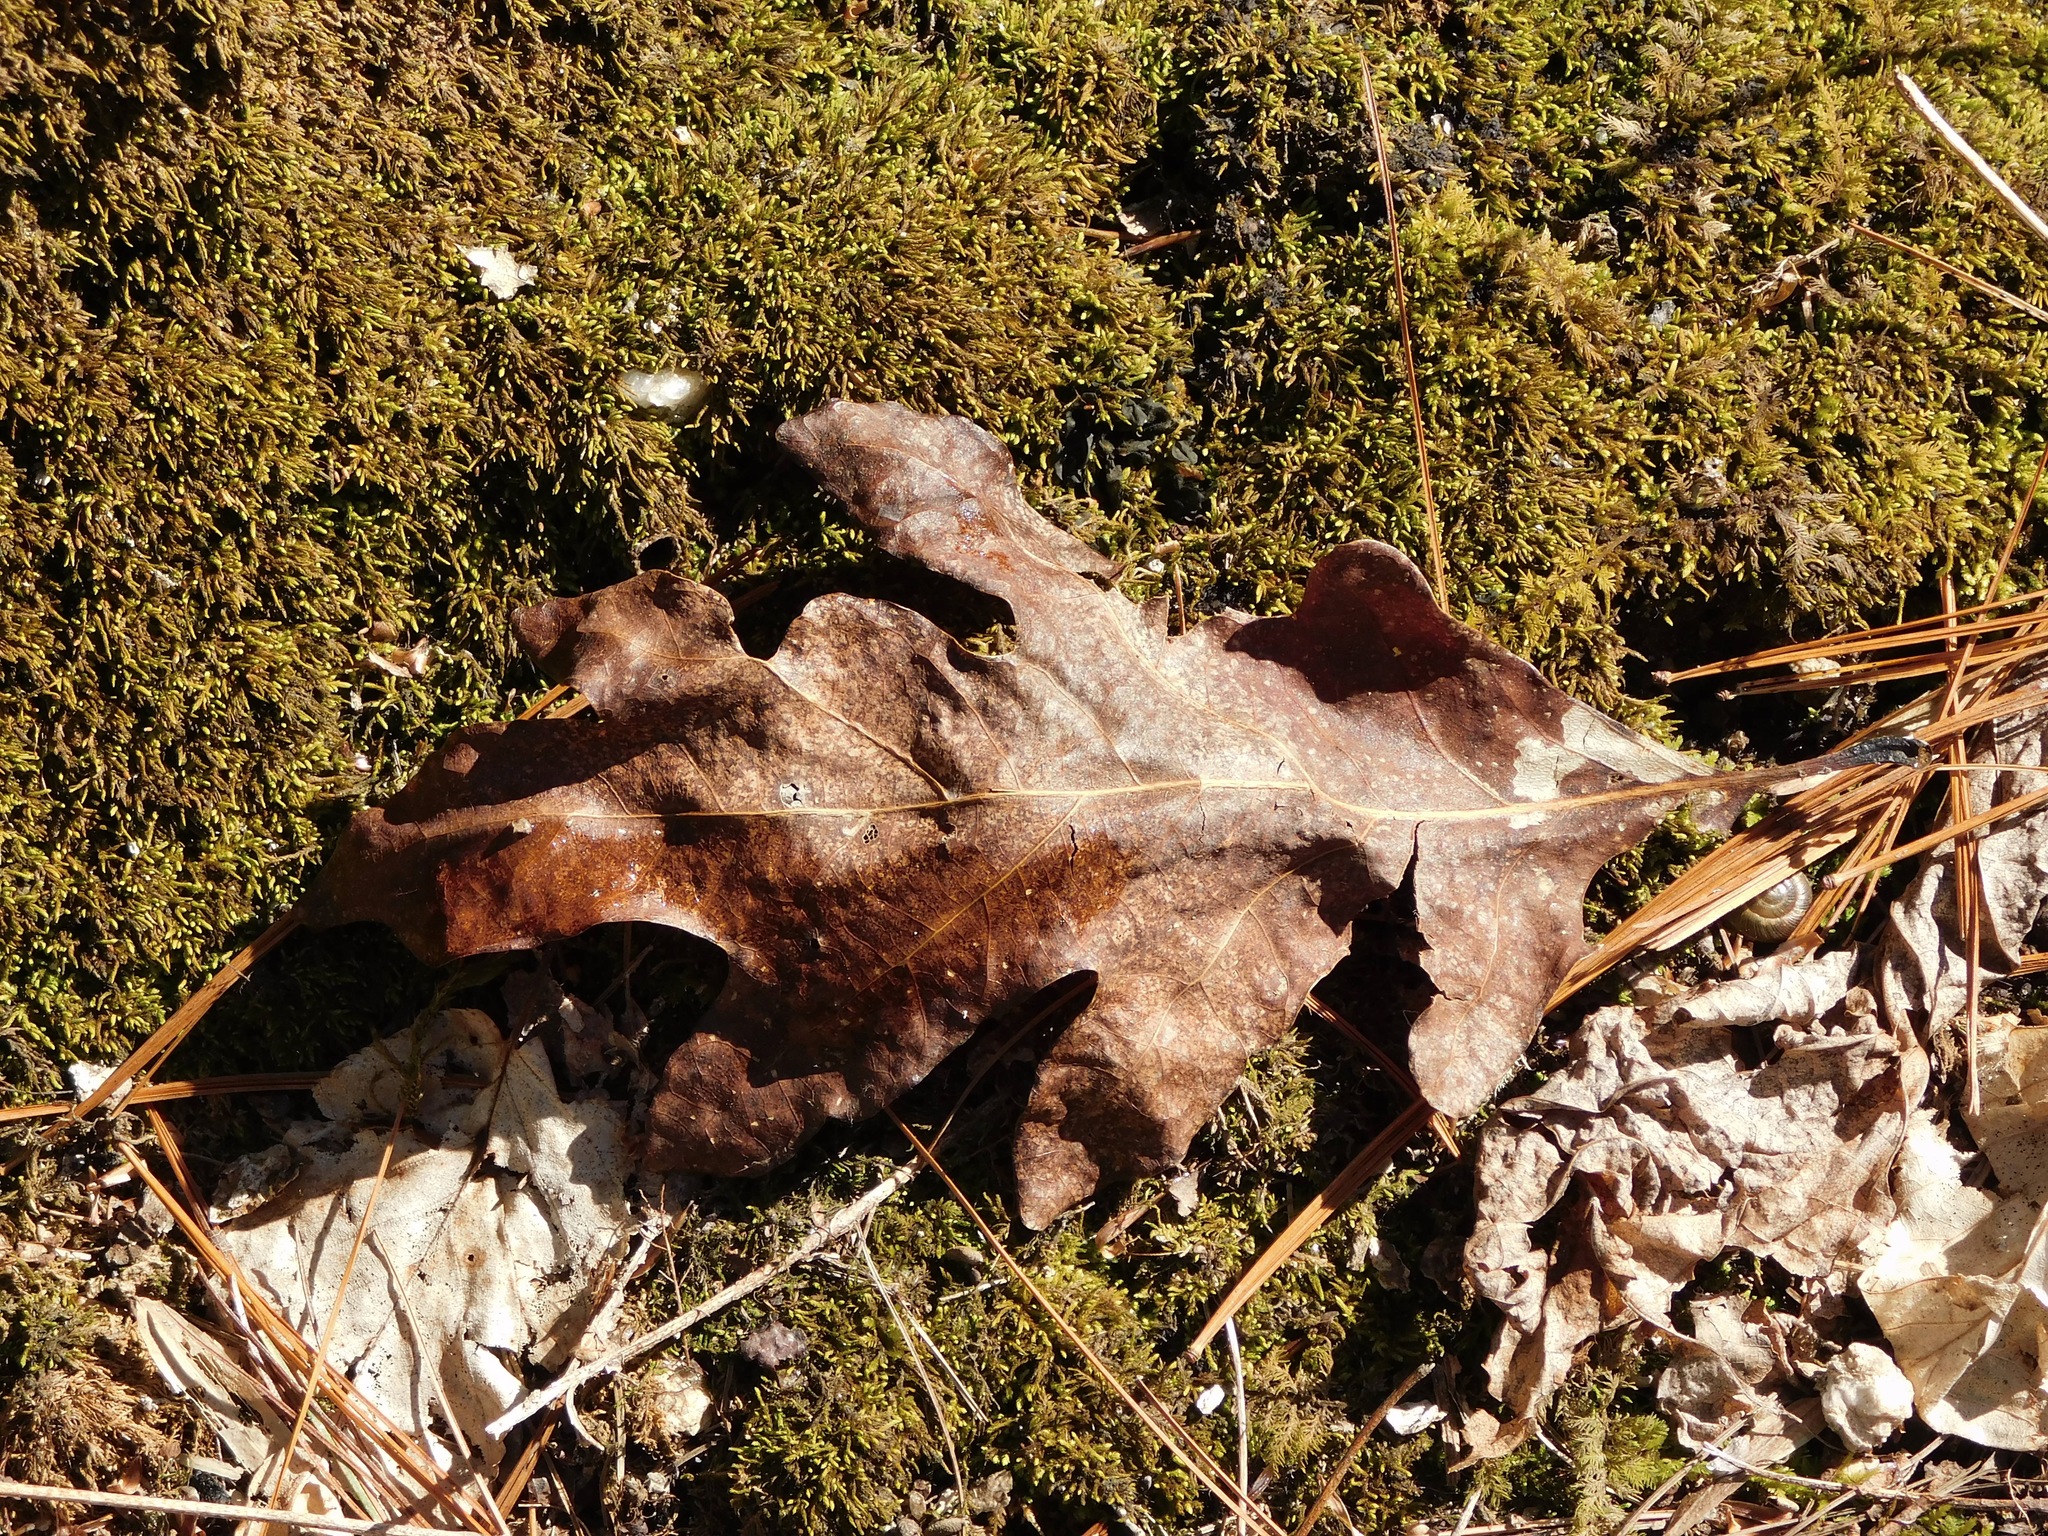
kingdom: Plantae
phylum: Tracheophyta
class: Magnoliopsida
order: Fagales
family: Fagaceae
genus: Quercus
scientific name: Quercus alba
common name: White oak
